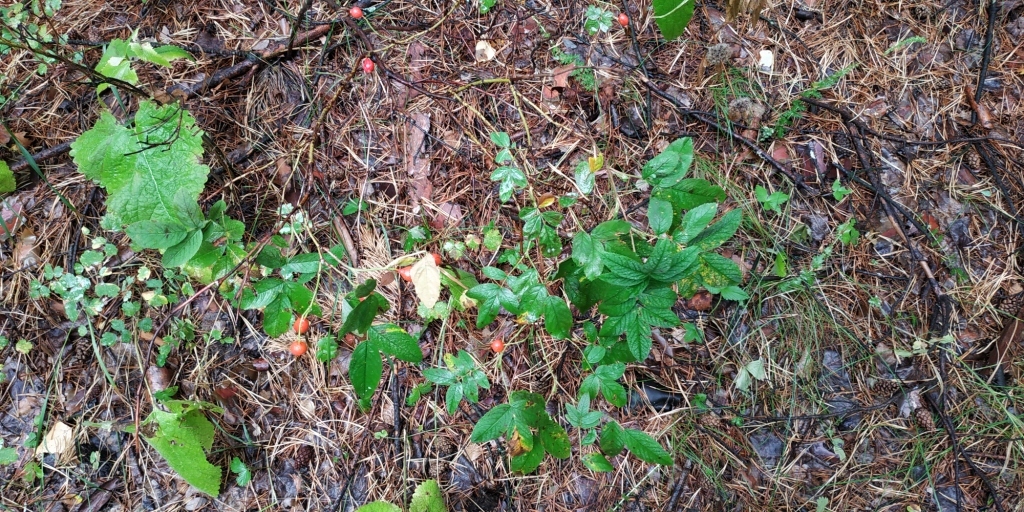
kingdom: Plantae
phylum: Tracheophyta
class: Magnoliopsida
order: Rosales
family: Rosaceae
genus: Rosa
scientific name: Rosa majalis
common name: Cinnamon rose
